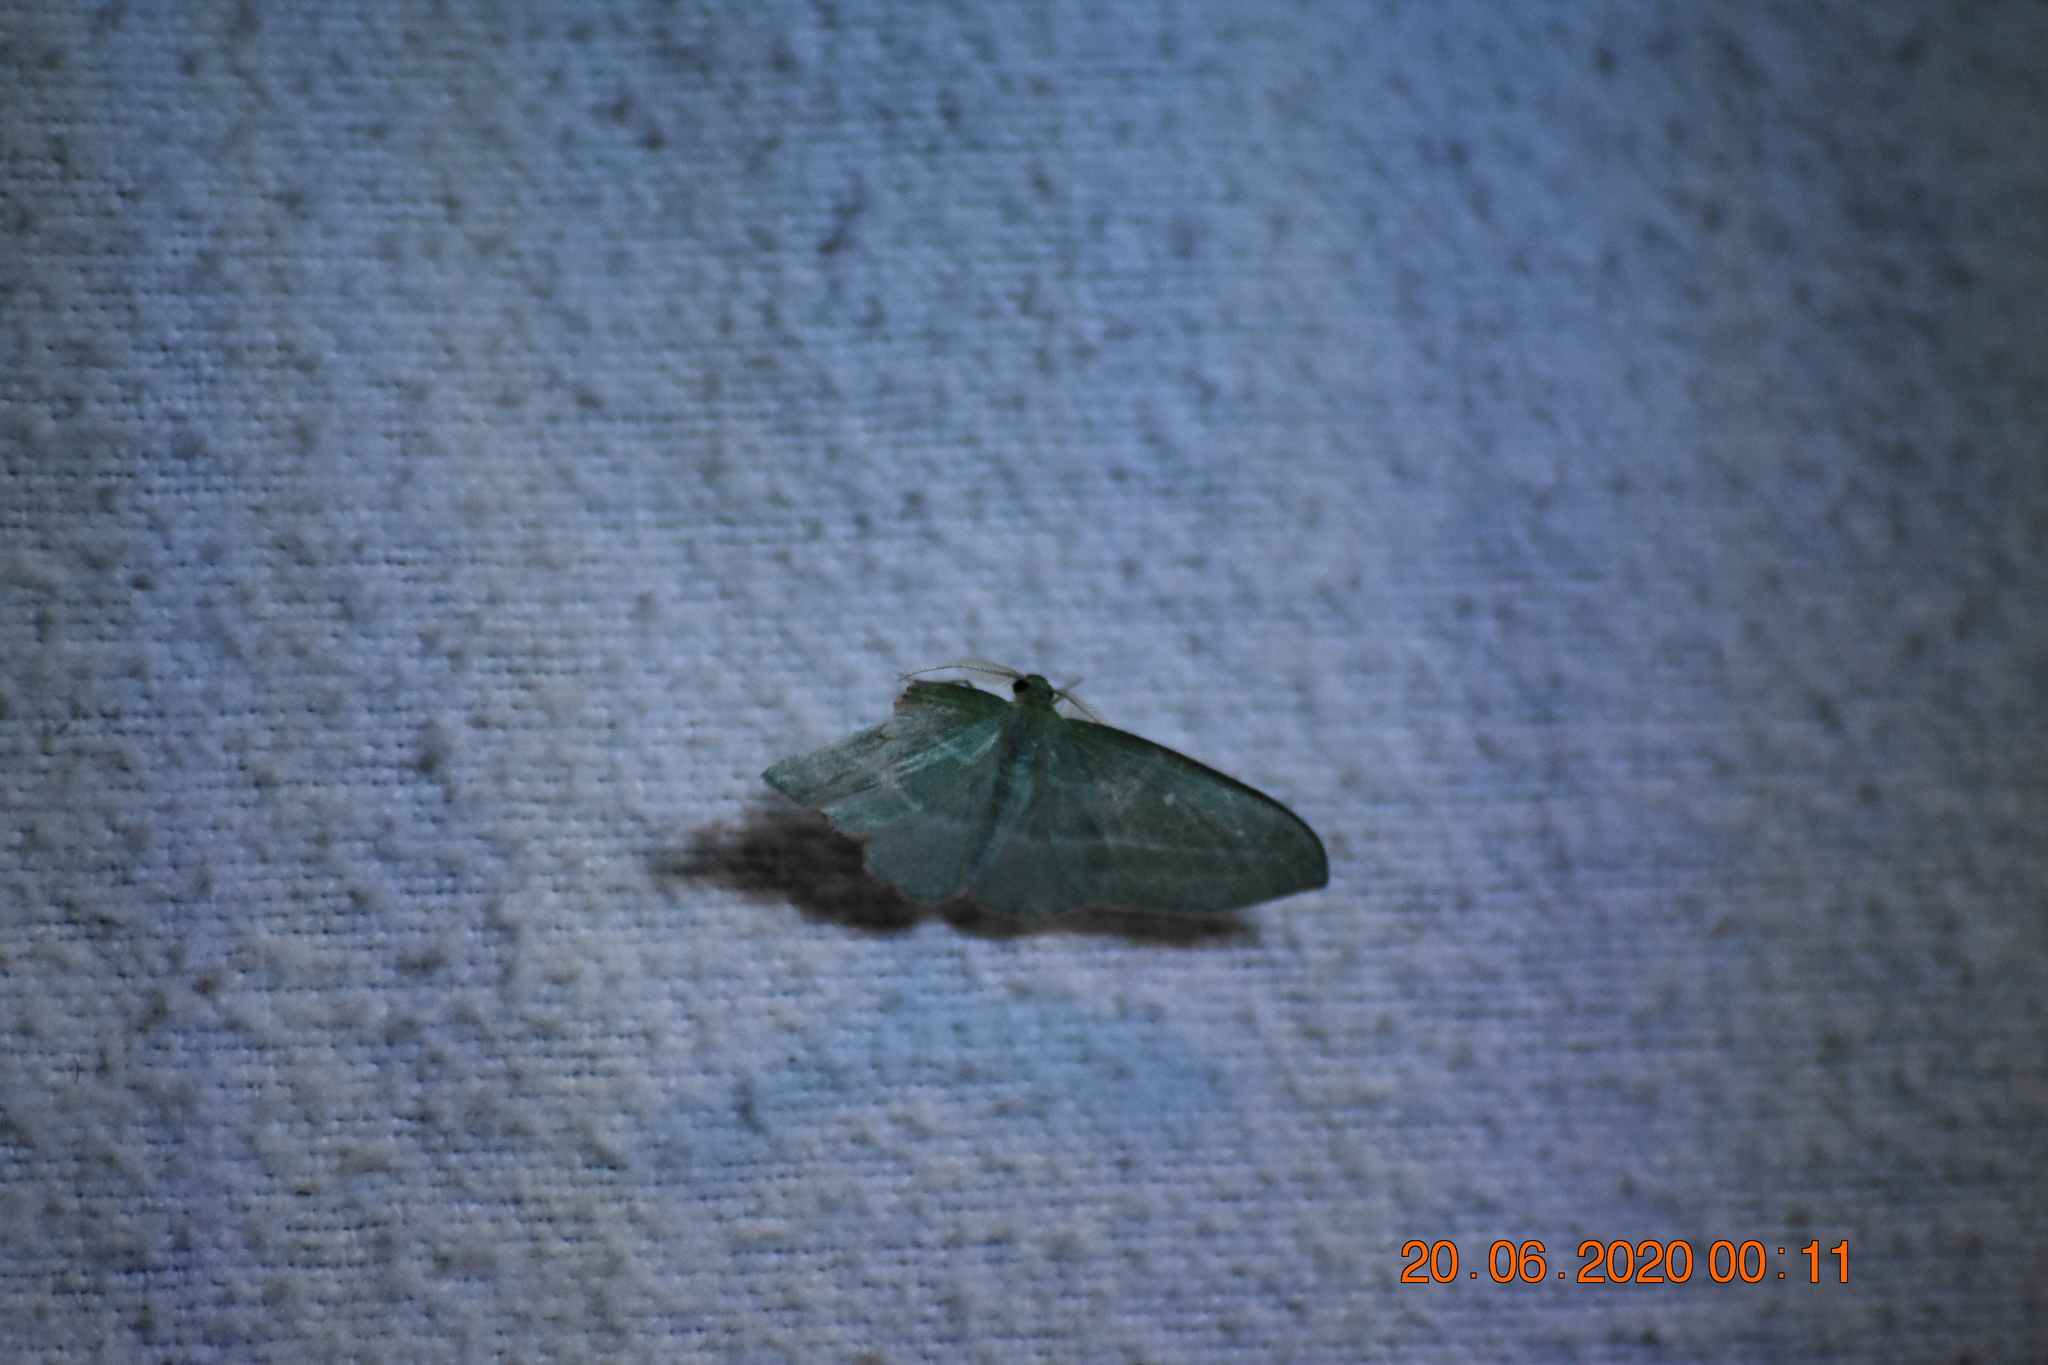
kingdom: Animalia
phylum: Arthropoda
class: Insecta
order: Lepidoptera
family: Geometridae
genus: Dyspteris
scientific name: Dyspteris abortivaria
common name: Bad-wing
